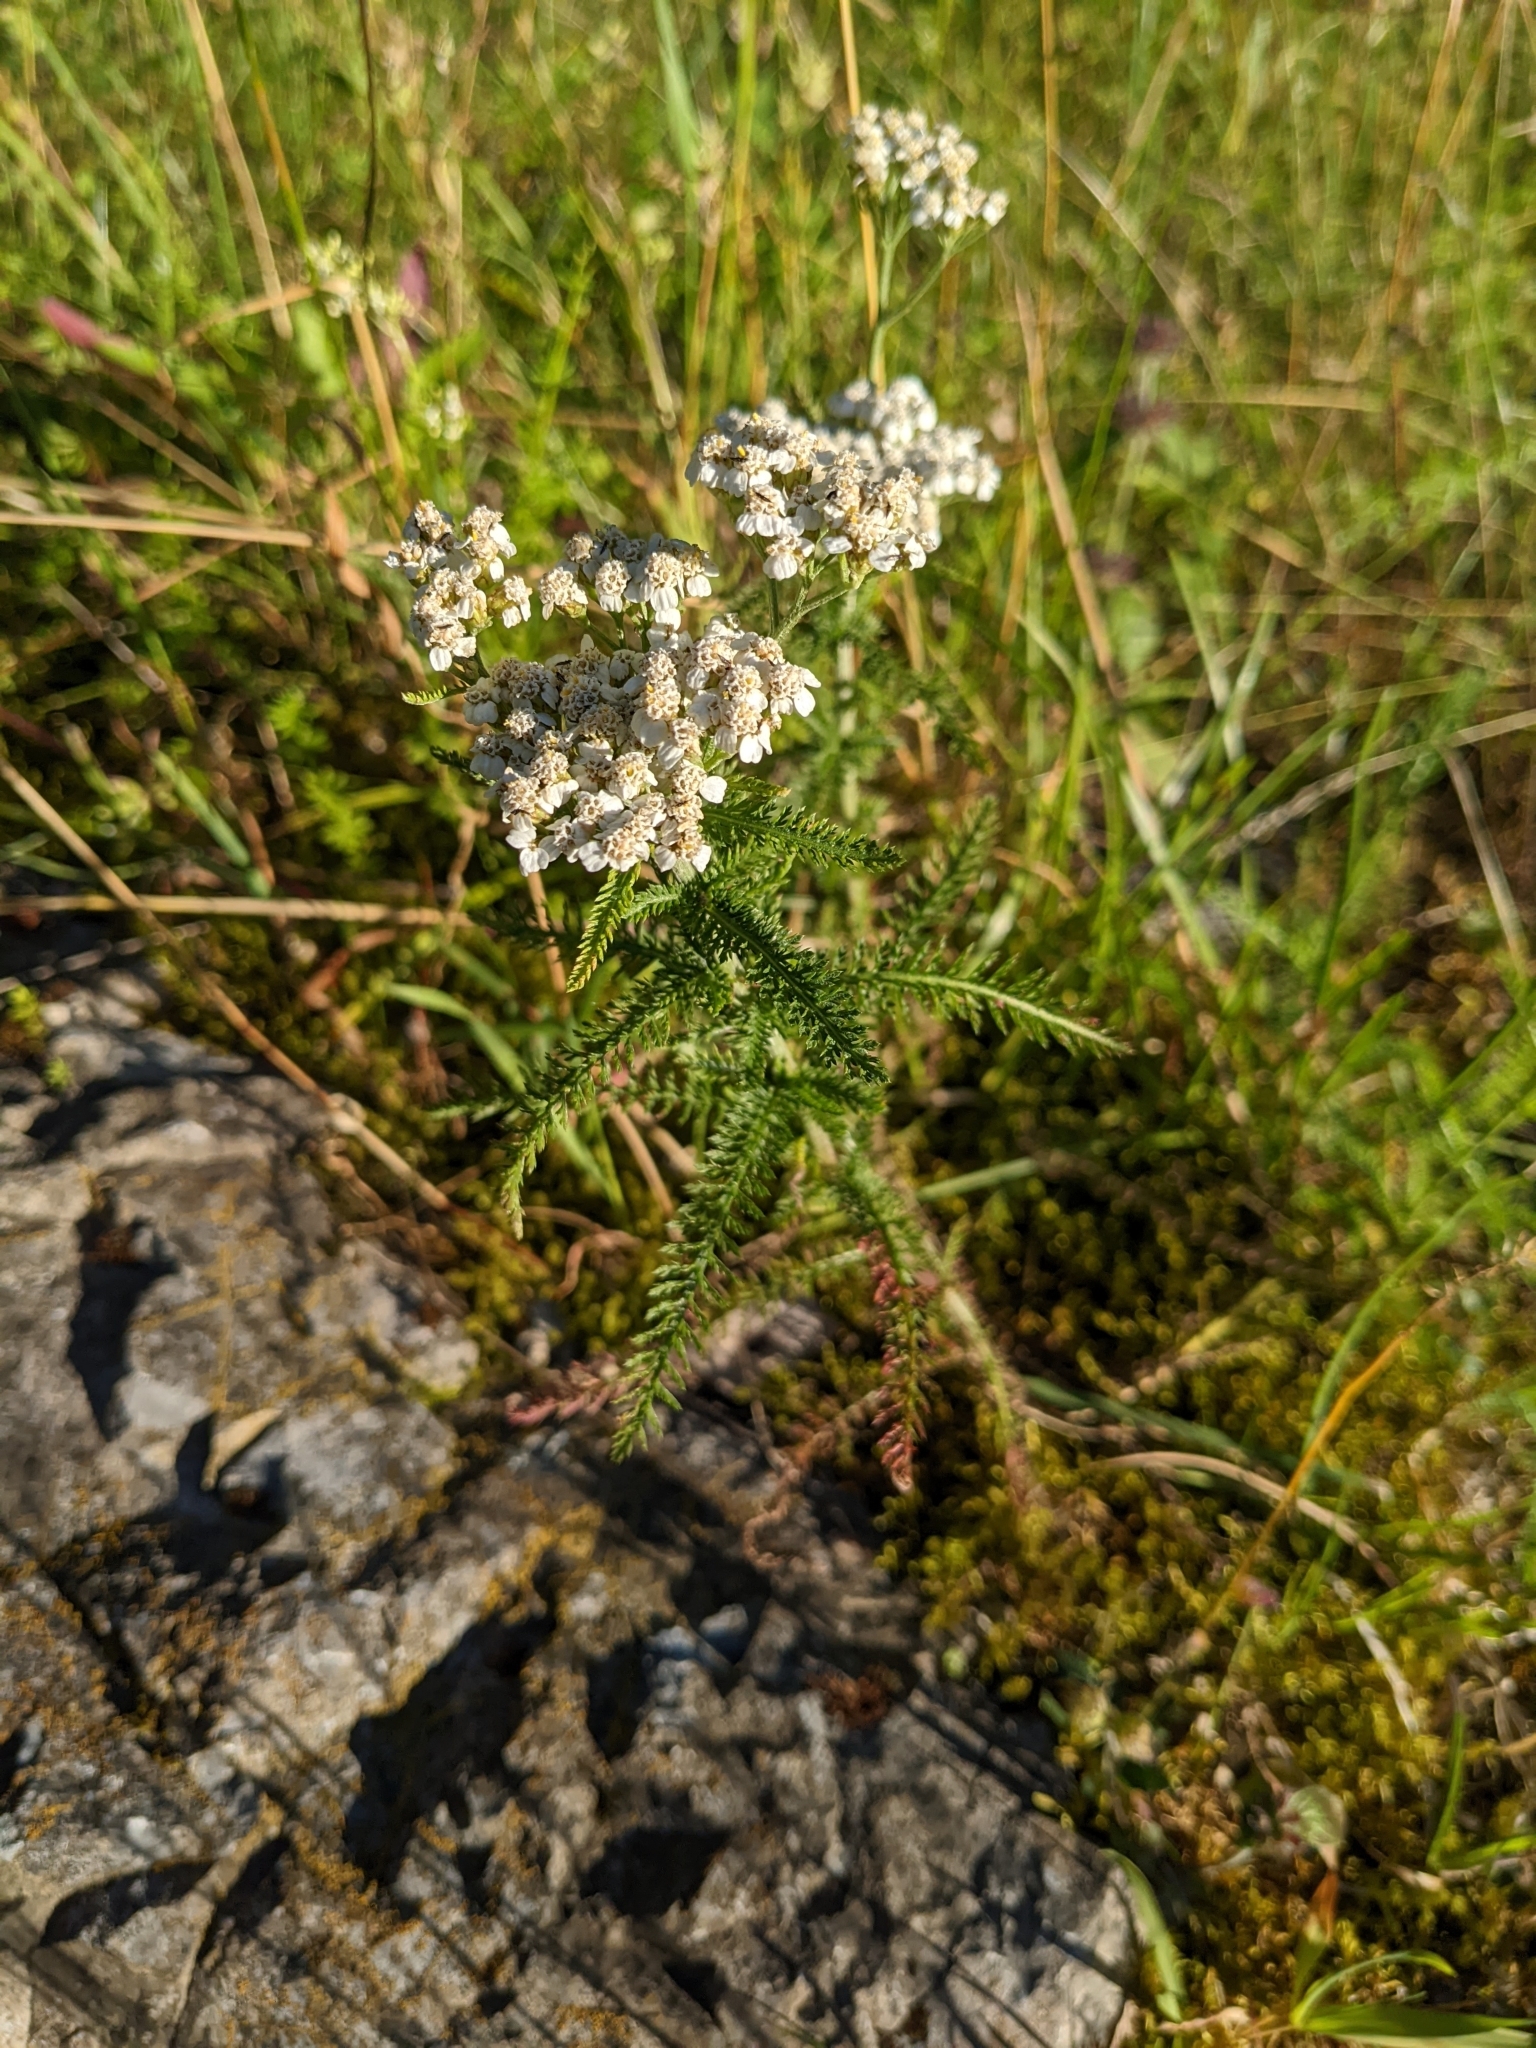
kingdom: Plantae
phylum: Tracheophyta
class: Magnoliopsida
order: Asterales
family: Asteraceae
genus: Achillea
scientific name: Achillea millefolium
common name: Yarrow
